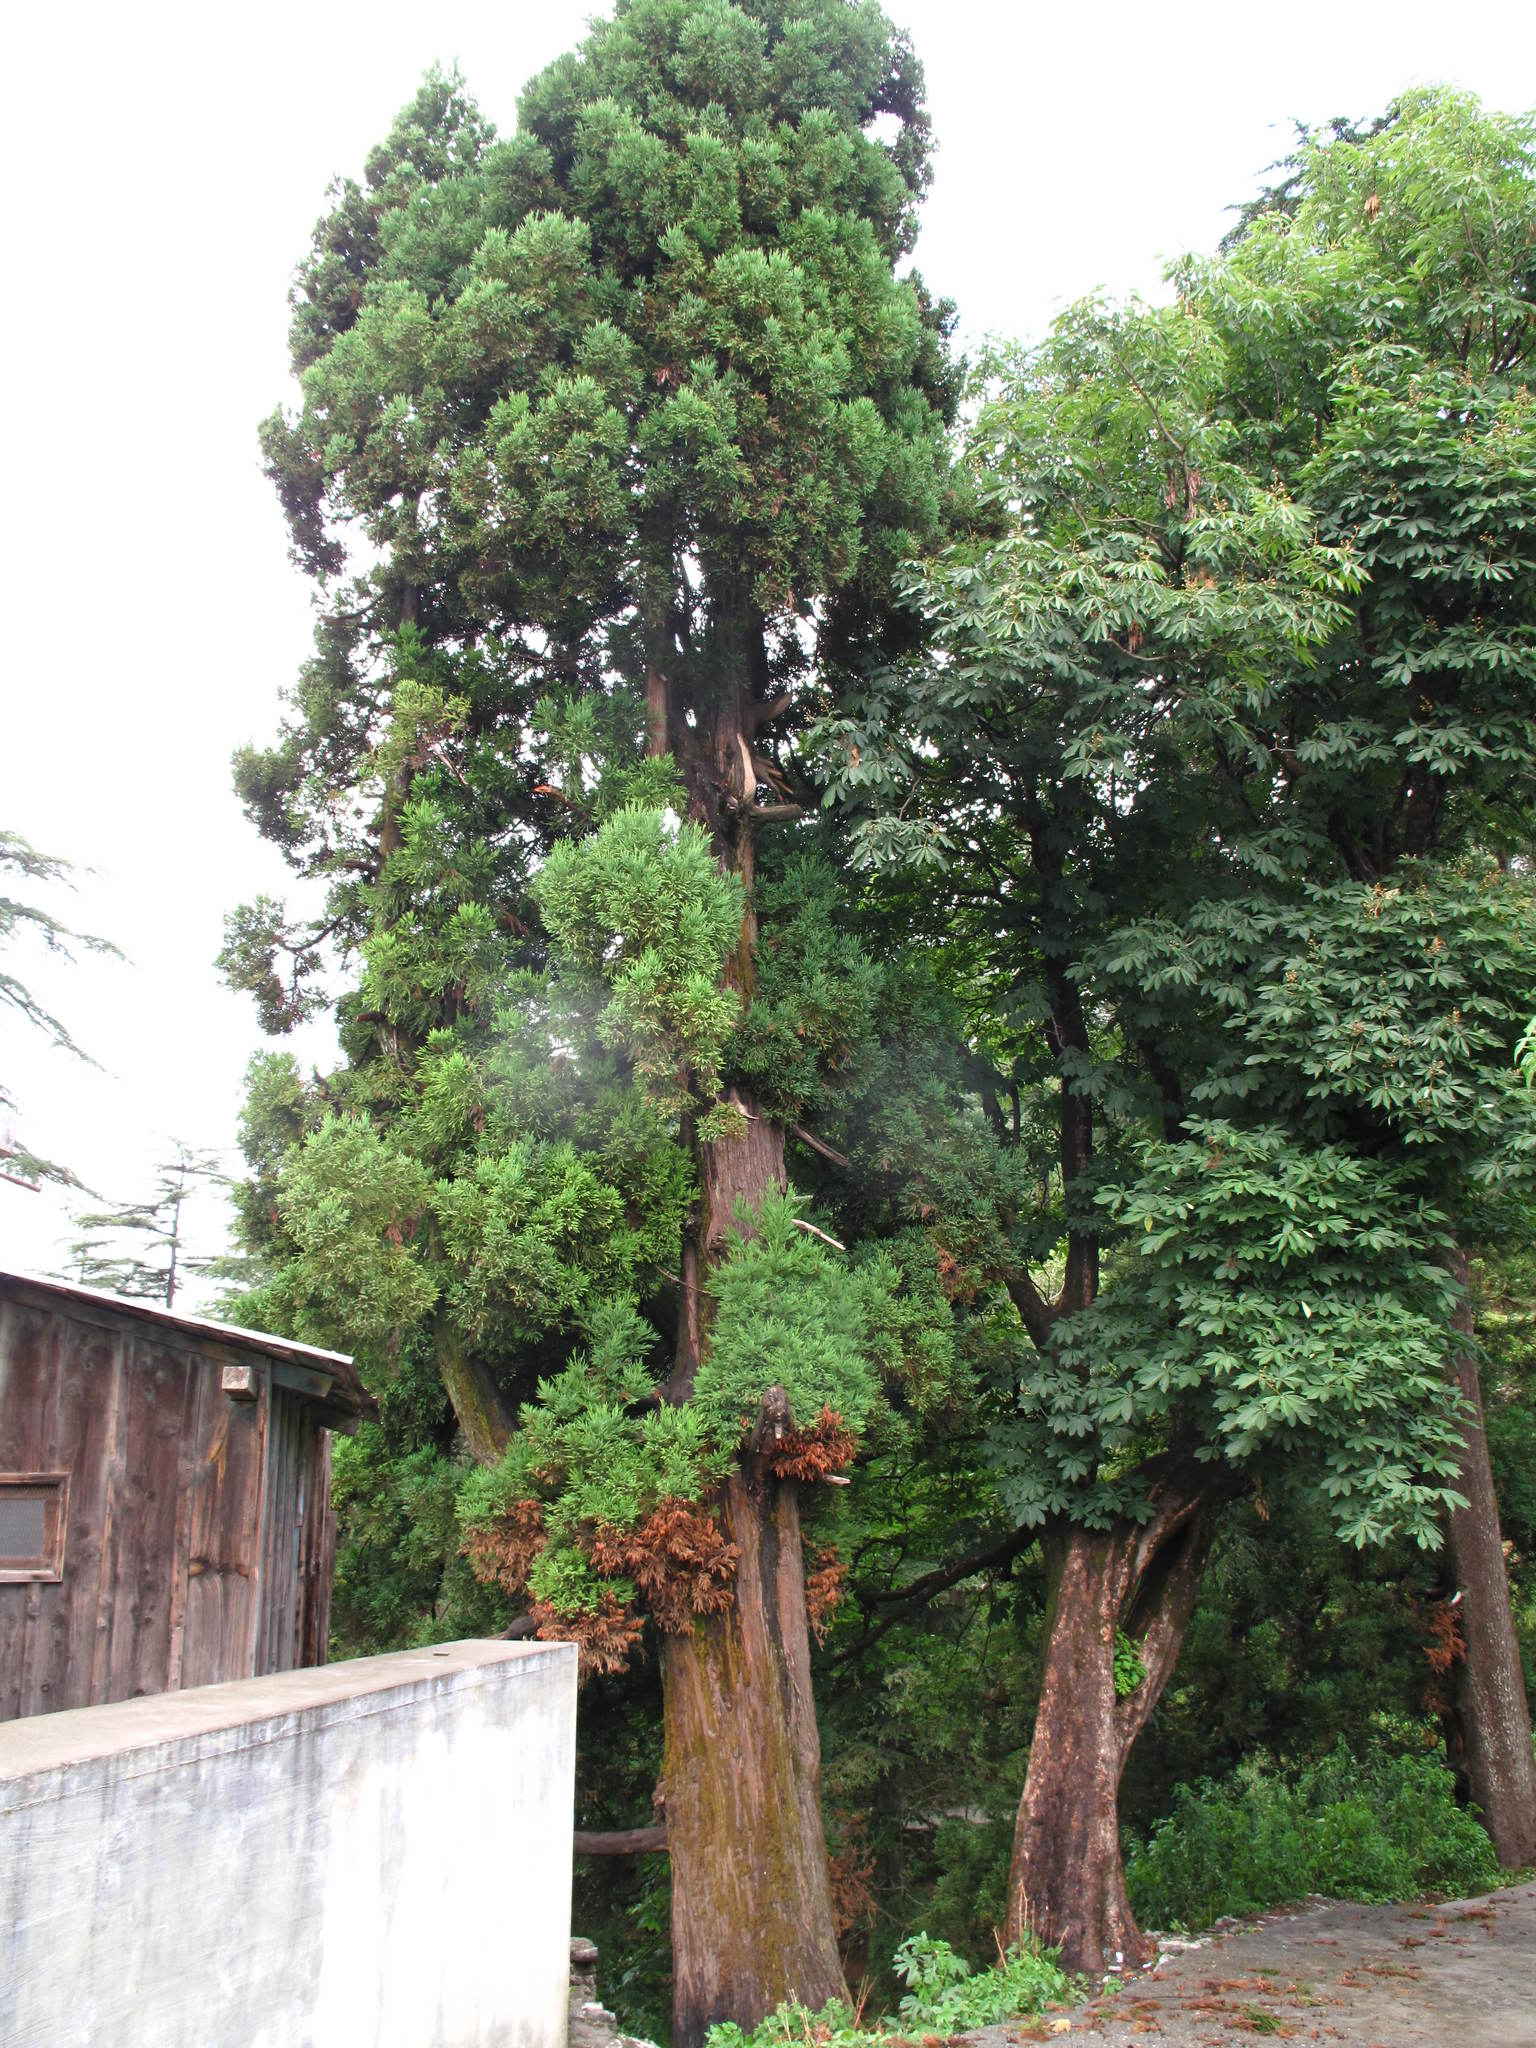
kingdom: Plantae
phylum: Tracheophyta
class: Pinopsida
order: Pinales
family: Cupressaceae
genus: Cryptomeria
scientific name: Cryptomeria japonica
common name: Japanese cedar
